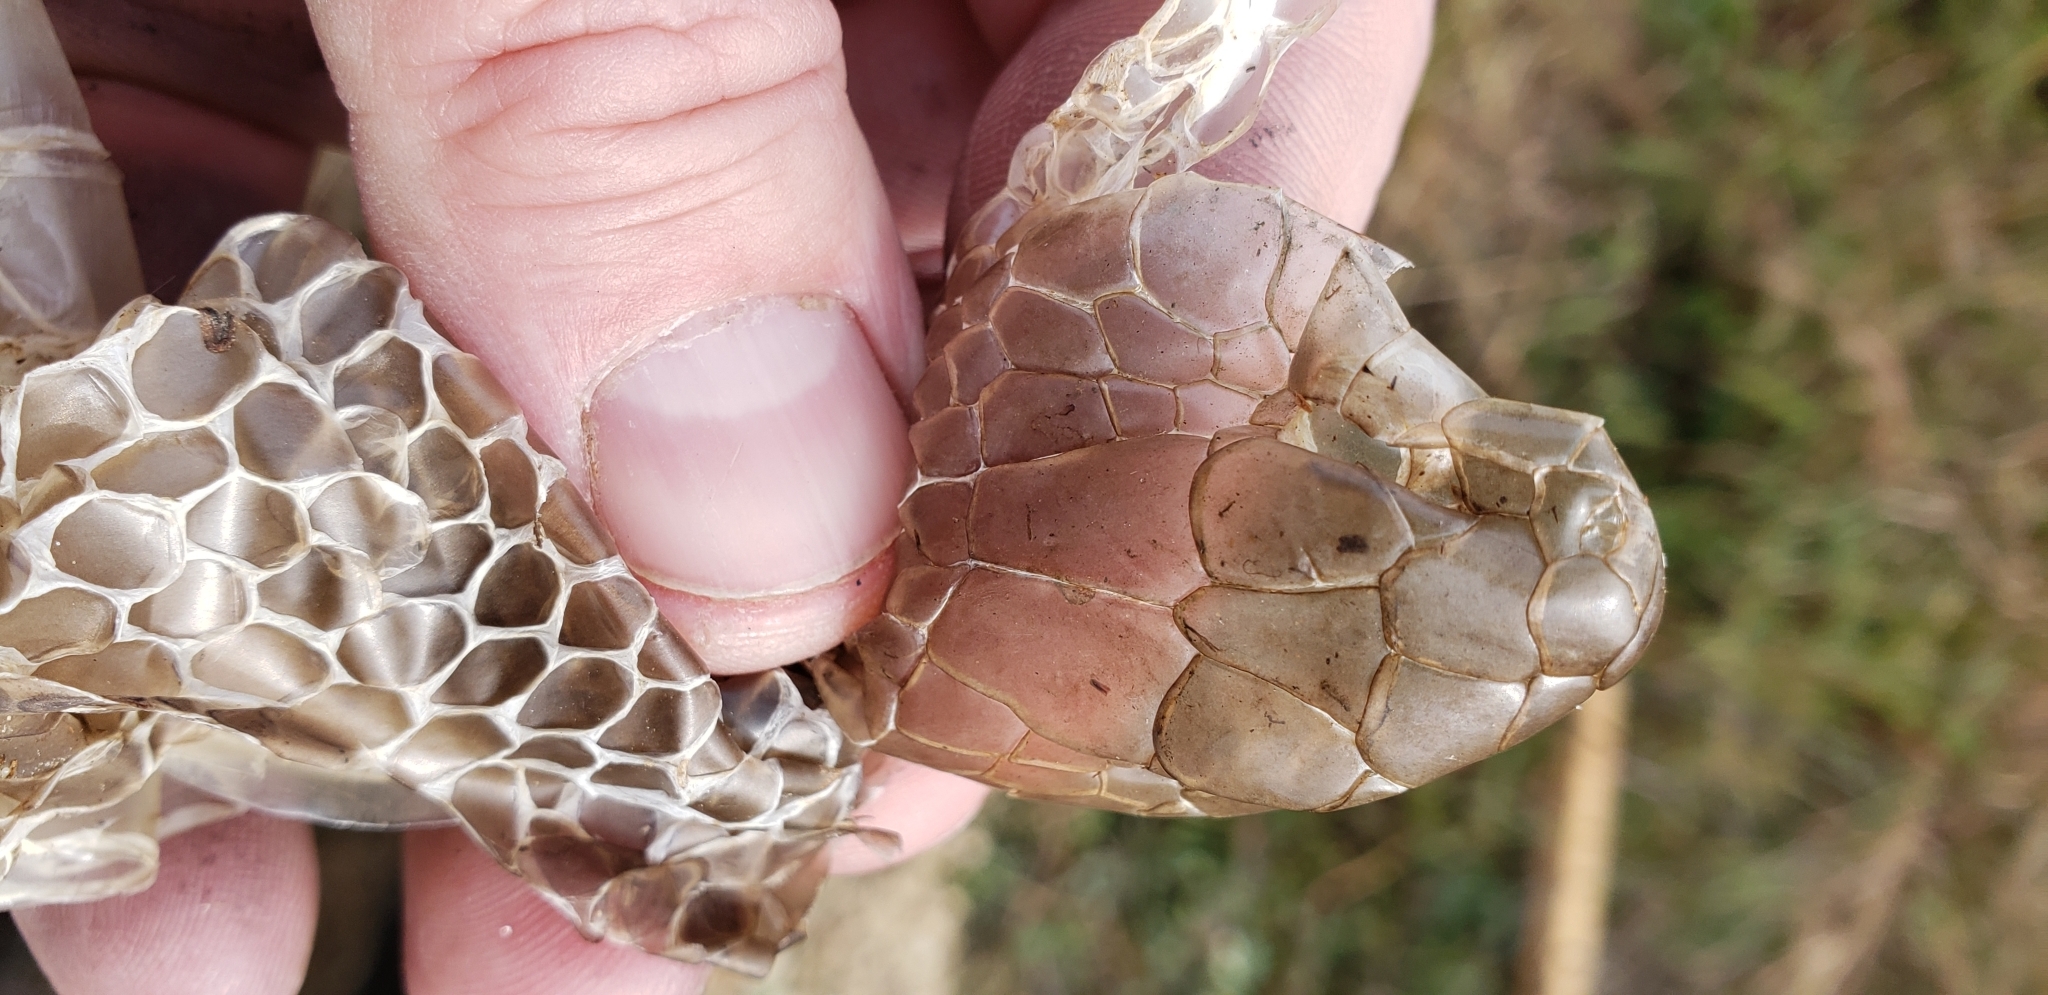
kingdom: Animalia
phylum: Chordata
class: Squamata
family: Colubridae
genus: Coluber
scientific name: Coluber constrictor
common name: Eastern racer
